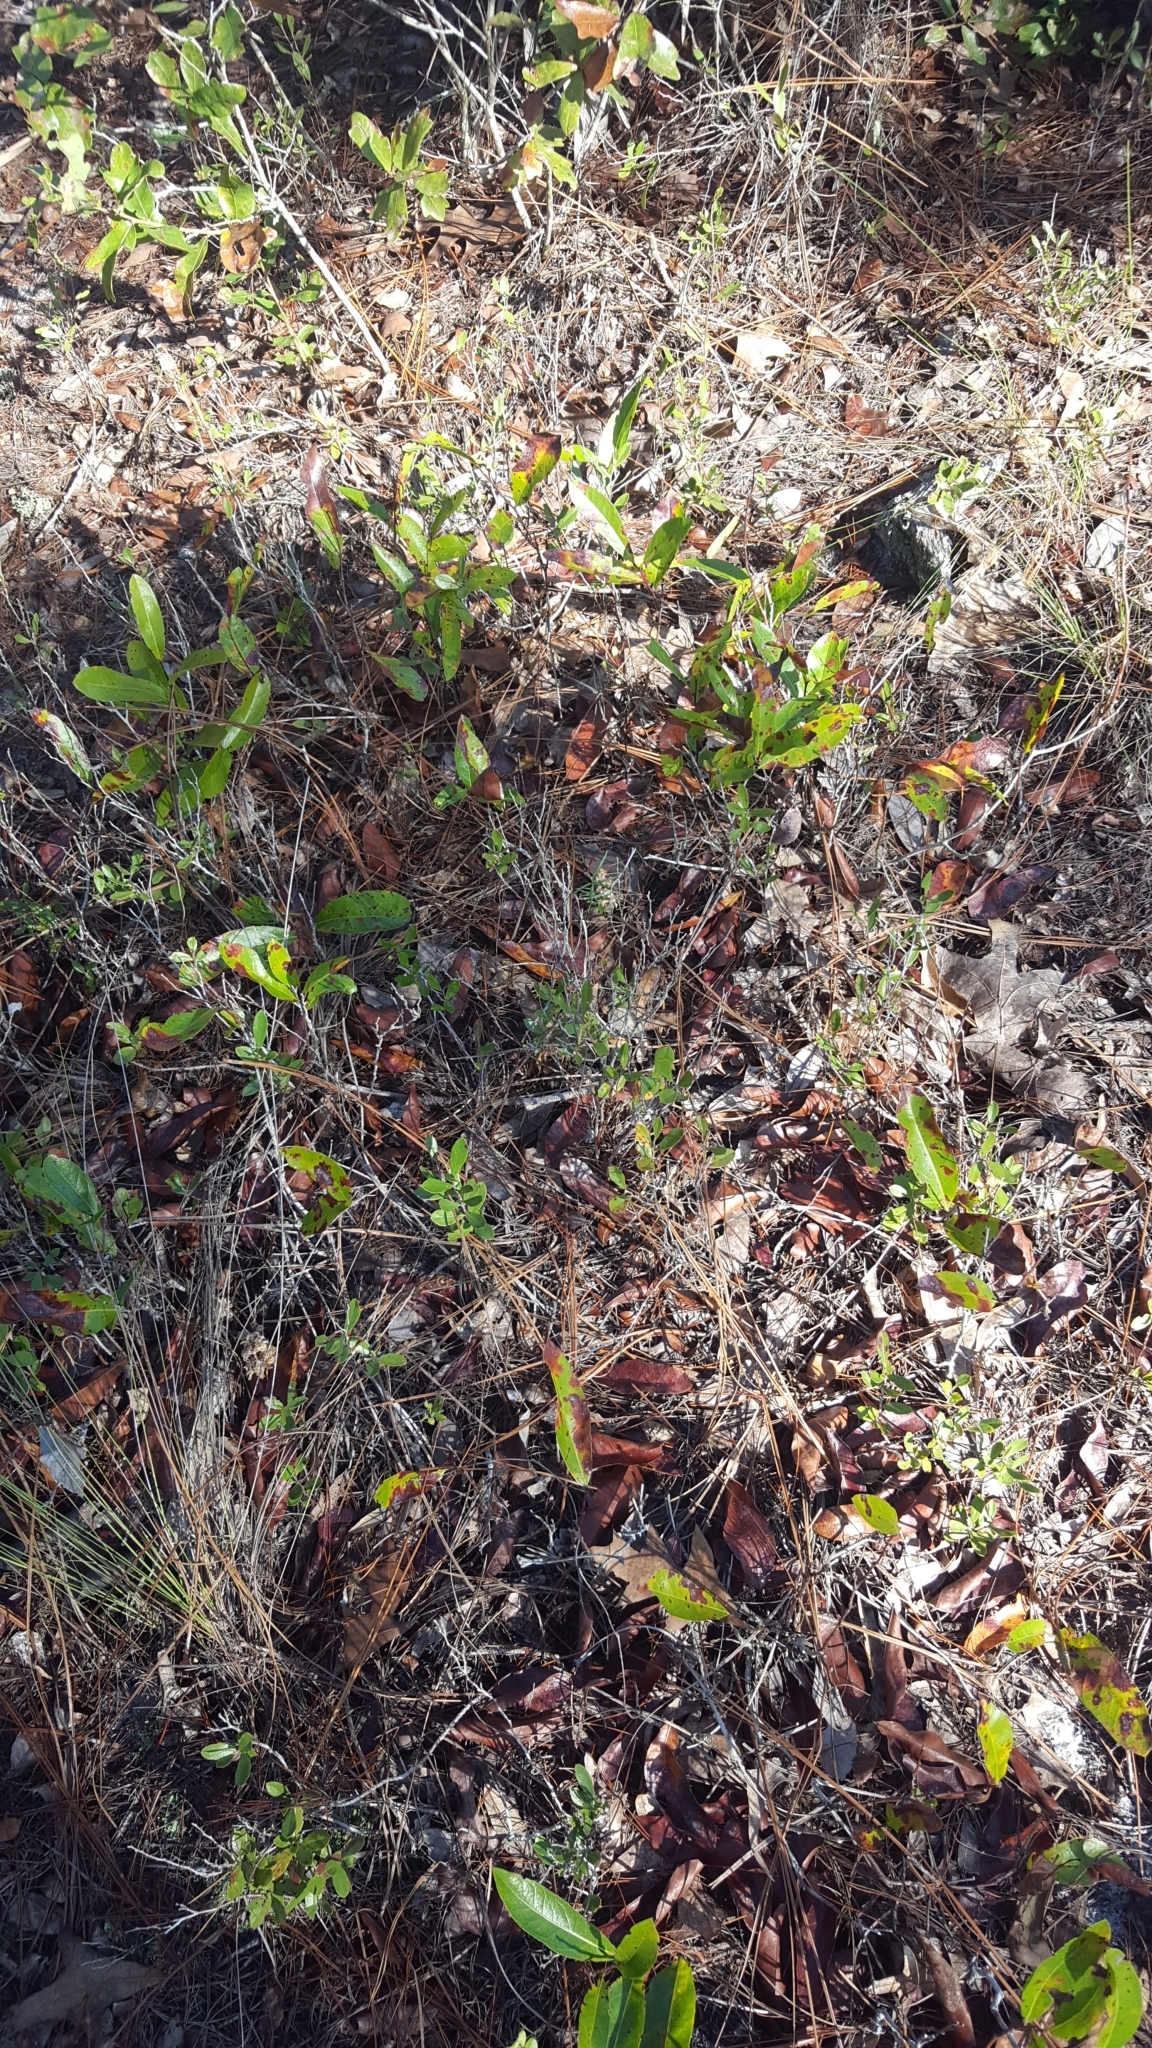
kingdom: Plantae
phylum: Tracheophyta
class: Magnoliopsida
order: Malpighiales
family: Chrysobalanaceae
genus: Geobalanus
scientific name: Geobalanus oblongifolius
